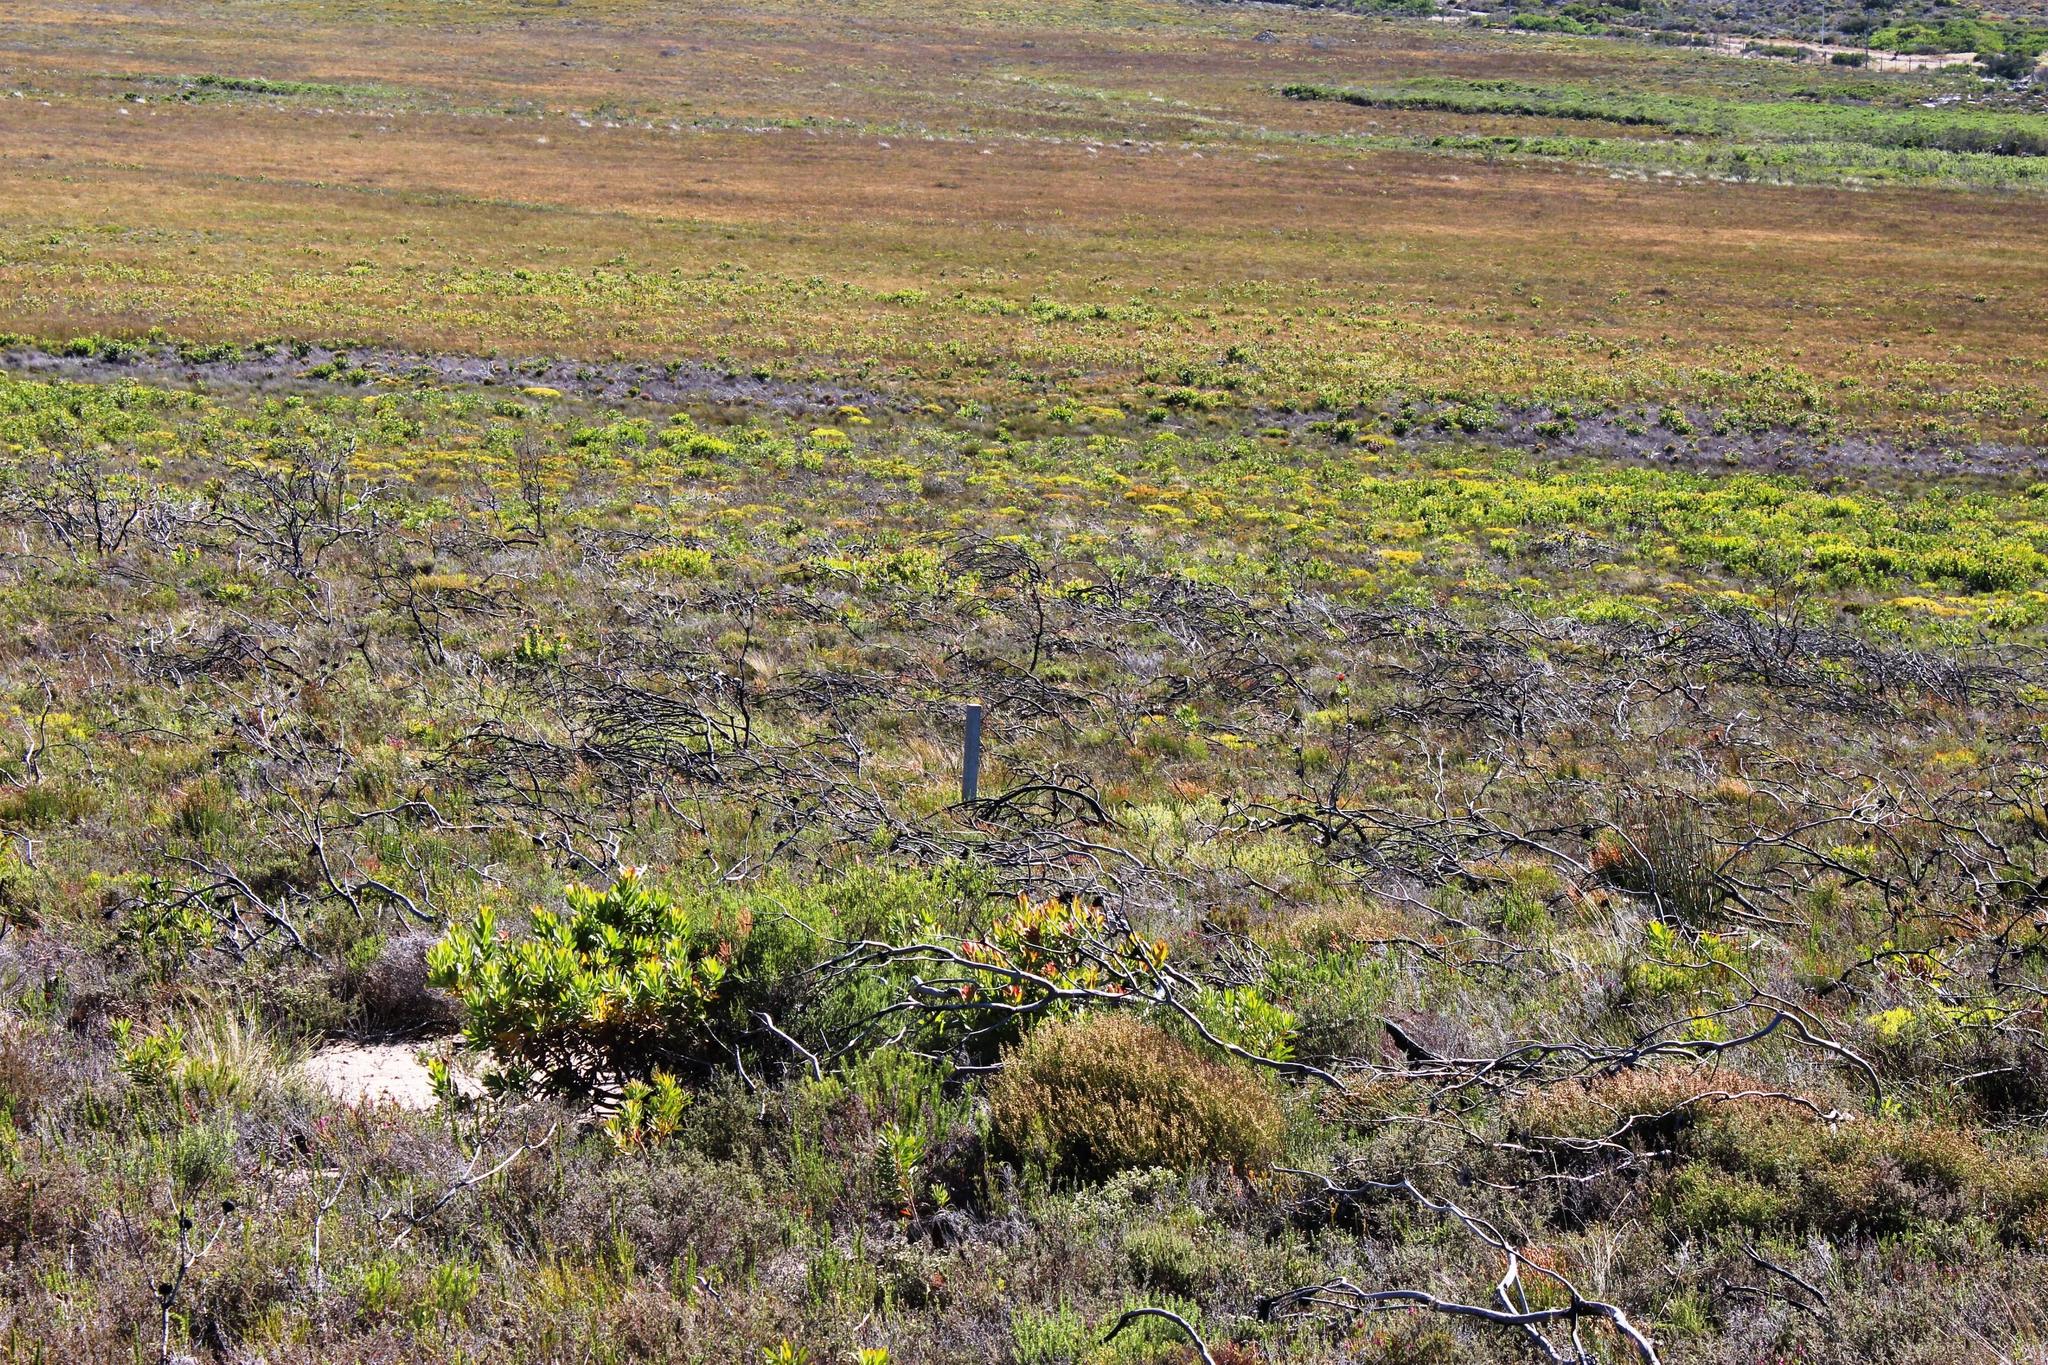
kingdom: Plantae
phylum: Tracheophyta
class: Magnoliopsida
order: Proteales
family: Proteaceae
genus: Protea
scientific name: Protea repens
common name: Sugarbush
